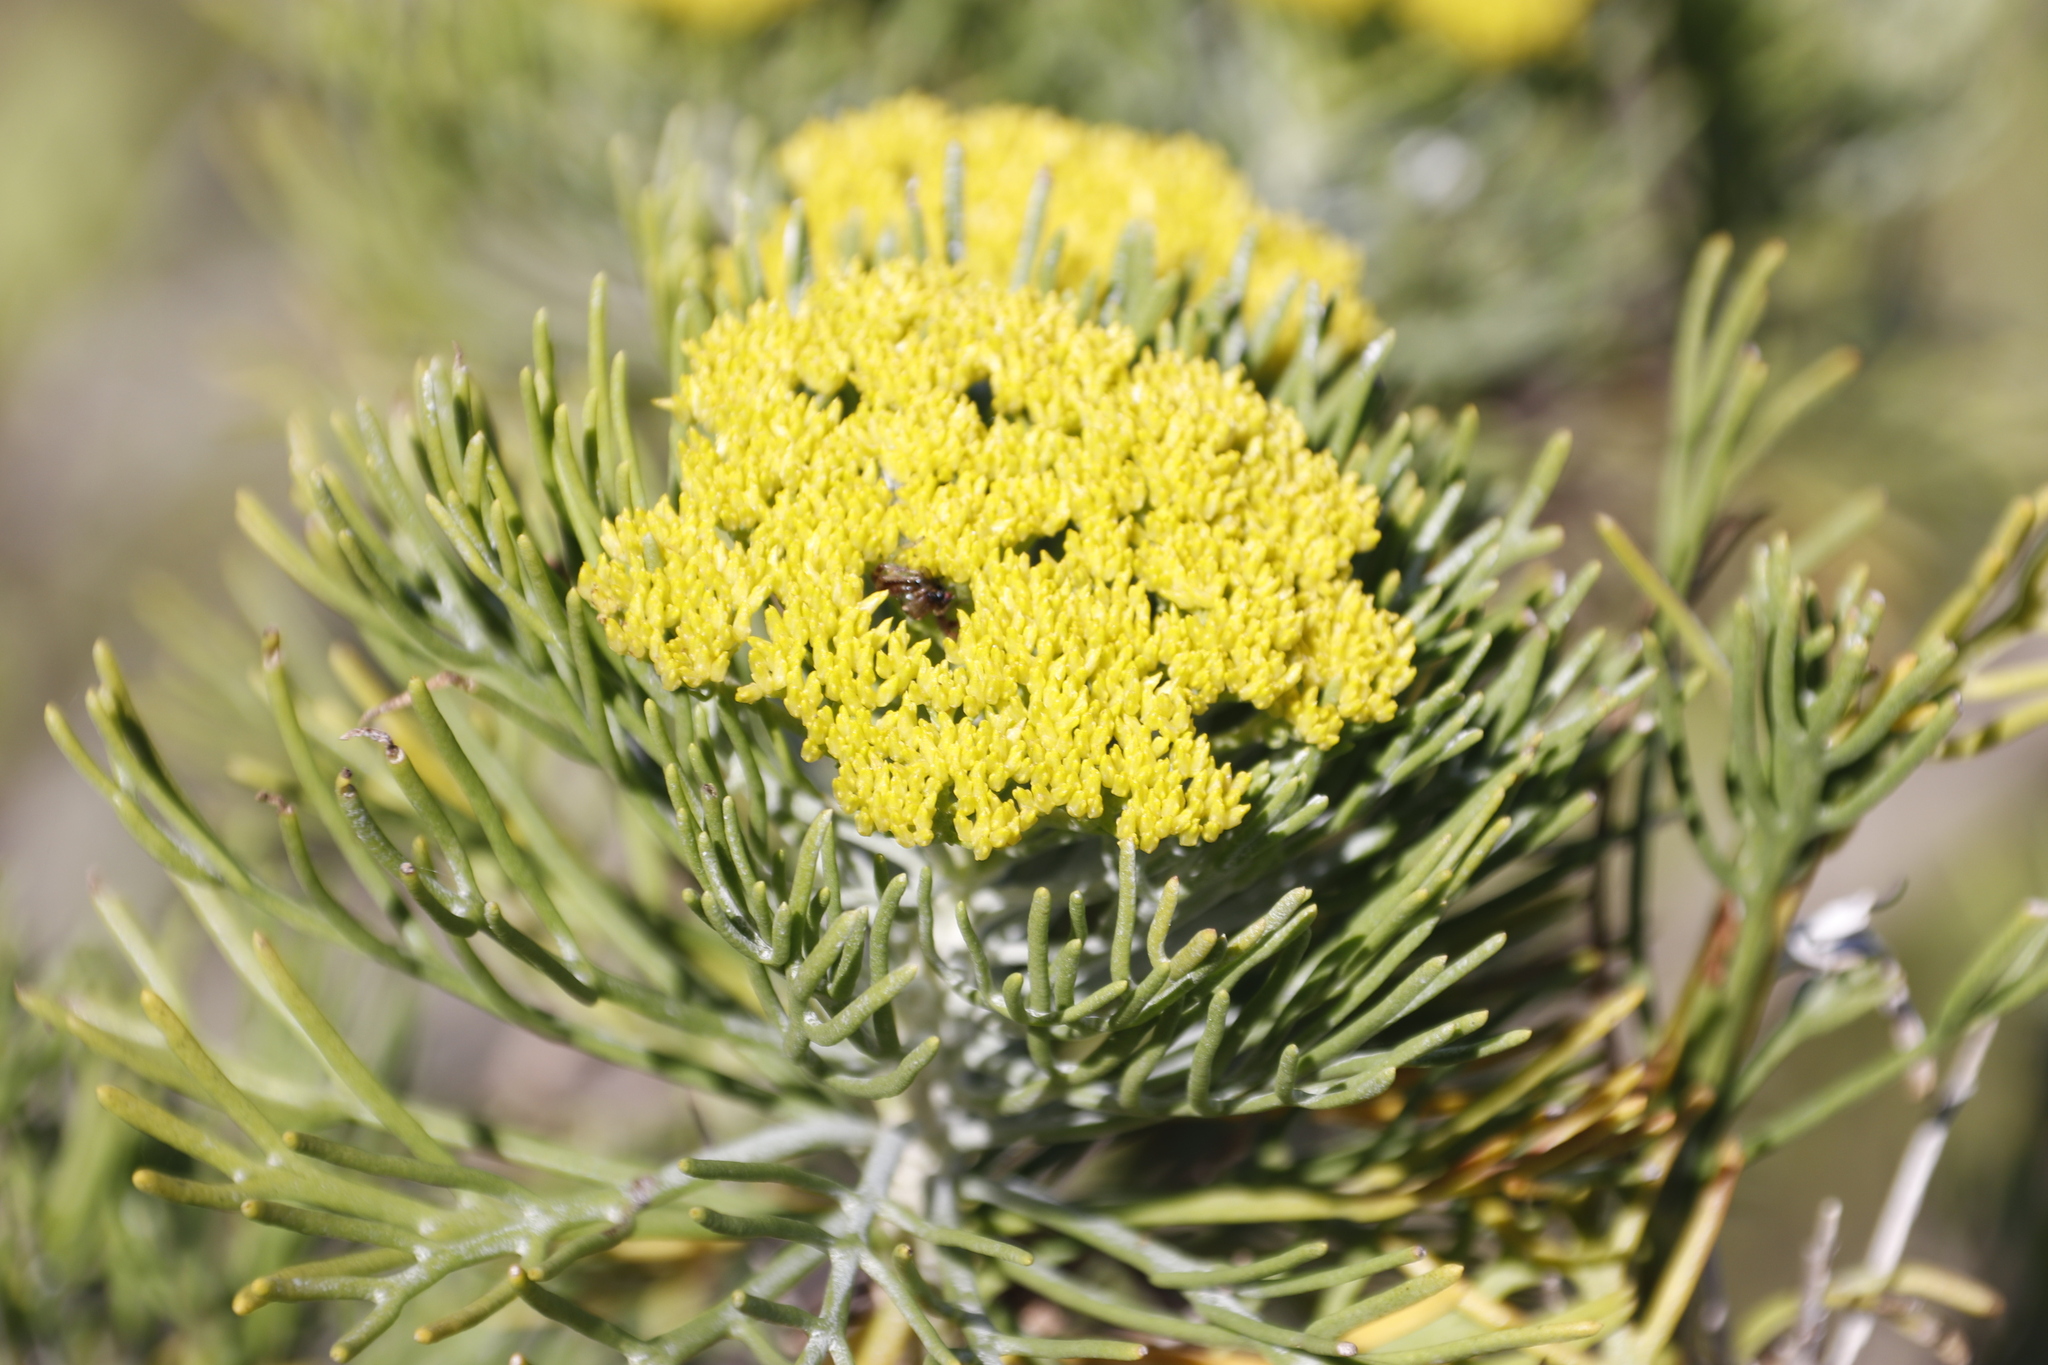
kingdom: Plantae
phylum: Tracheophyta
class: Magnoliopsida
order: Asterales
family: Asteraceae
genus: Hymenolepis
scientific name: Hymenolepis crithmifolia
